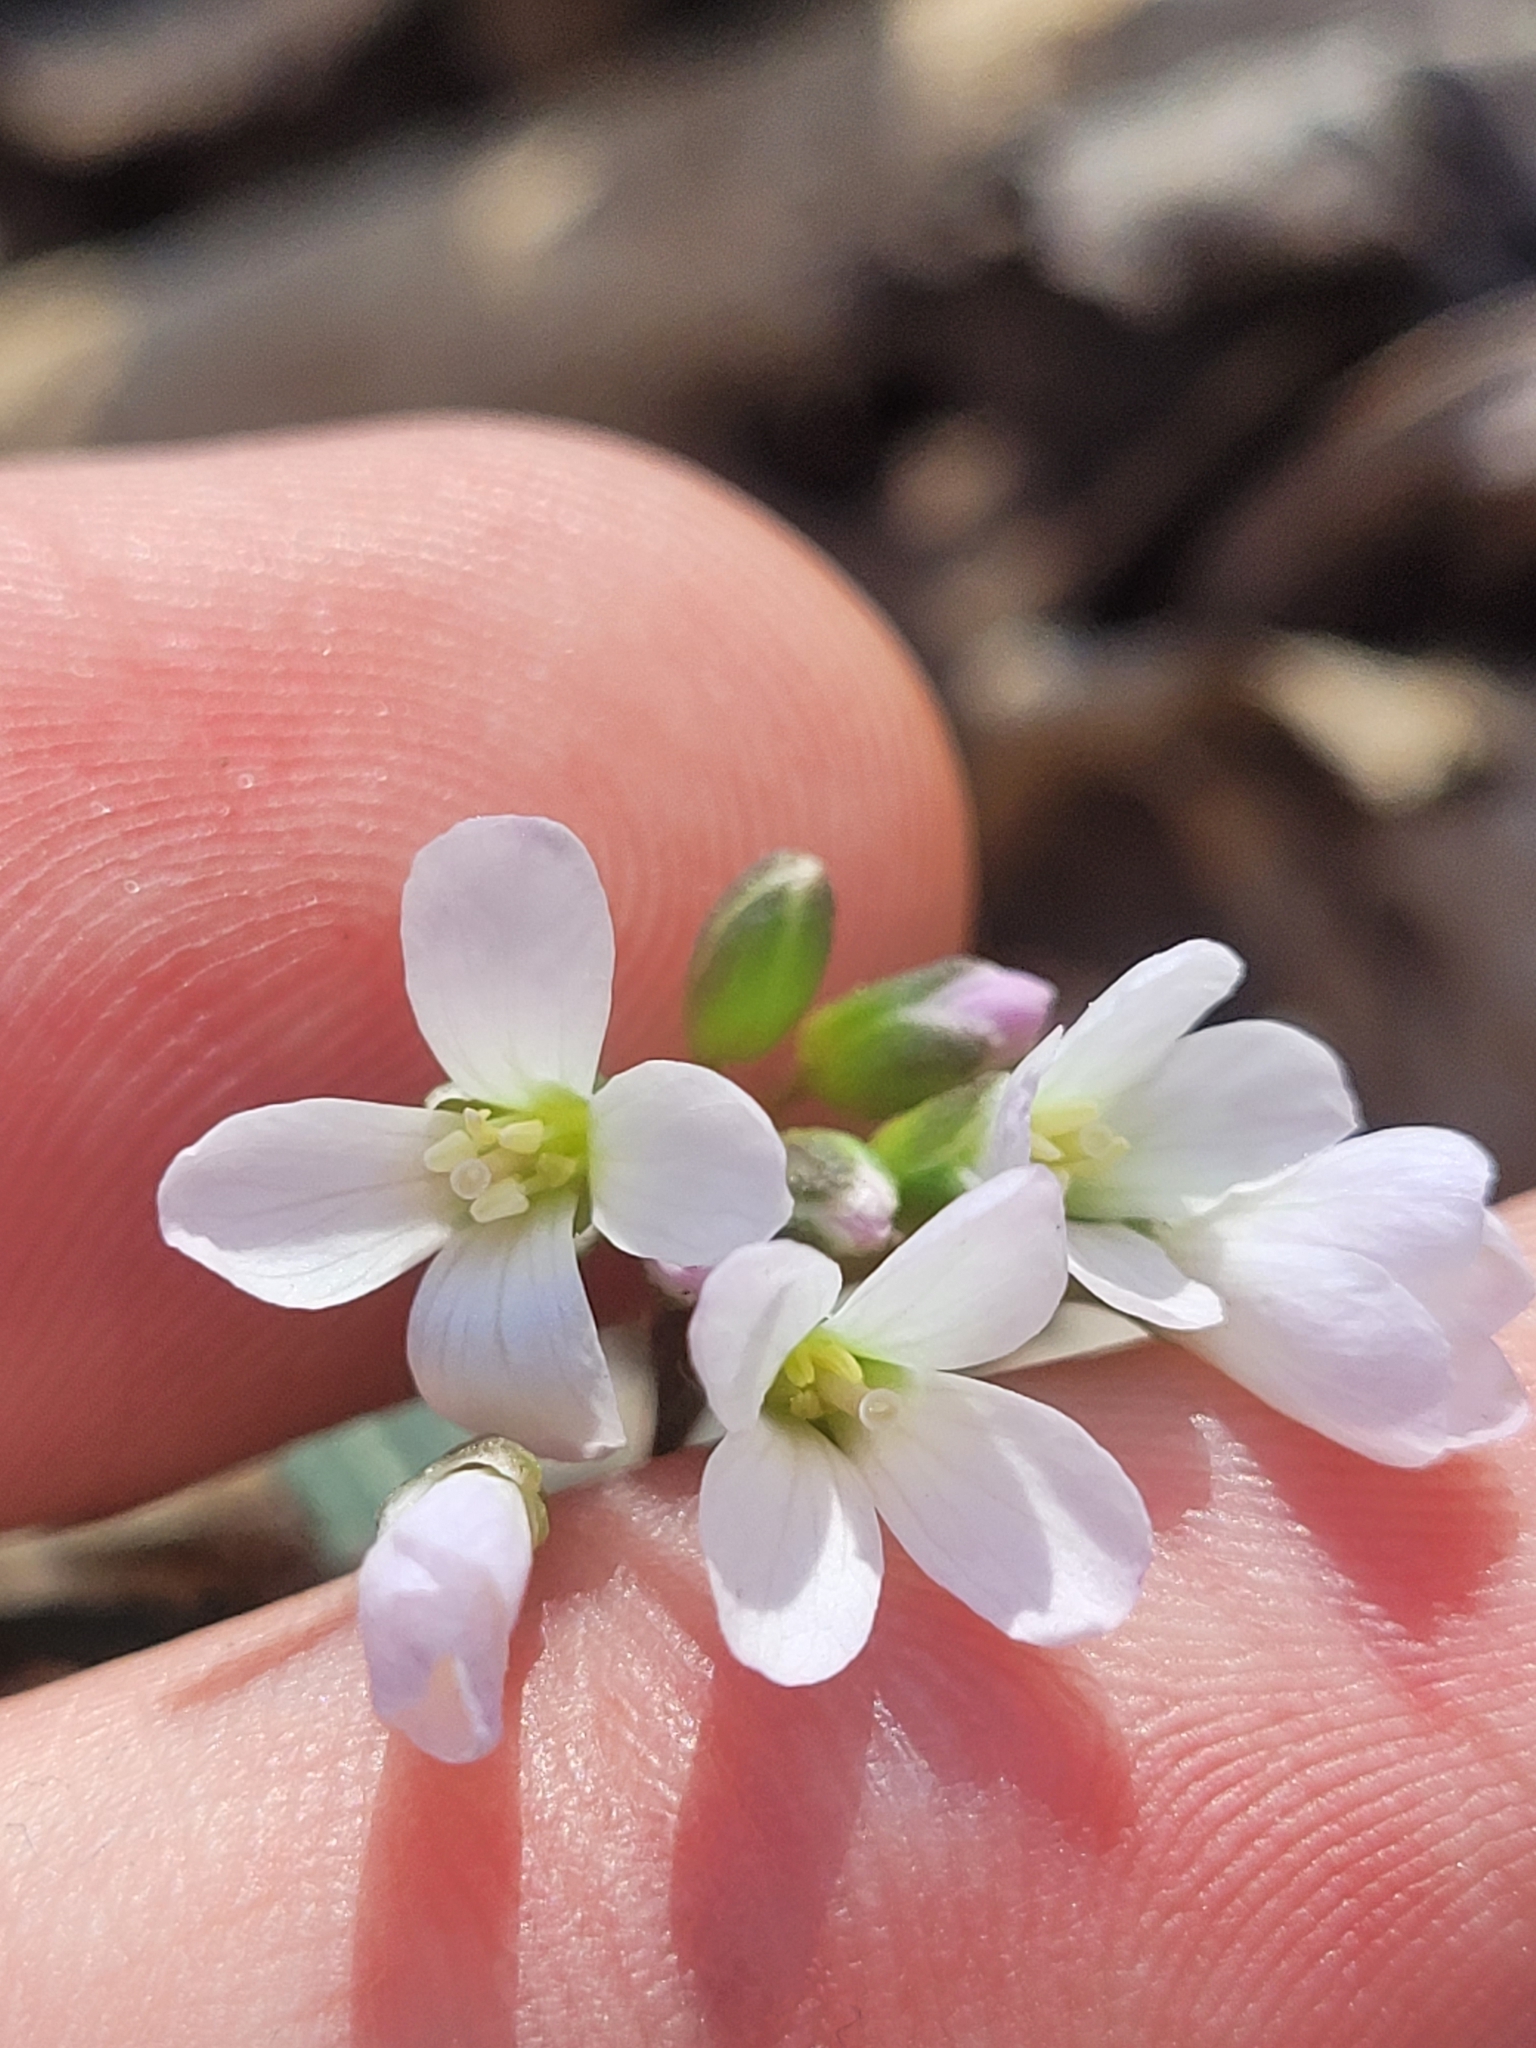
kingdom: Plantae
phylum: Tracheophyta
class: Magnoliopsida
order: Brassicales
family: Brassicaceae
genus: Cardamine
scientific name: Cardamine concatenata
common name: Cut-leaf toothcup
